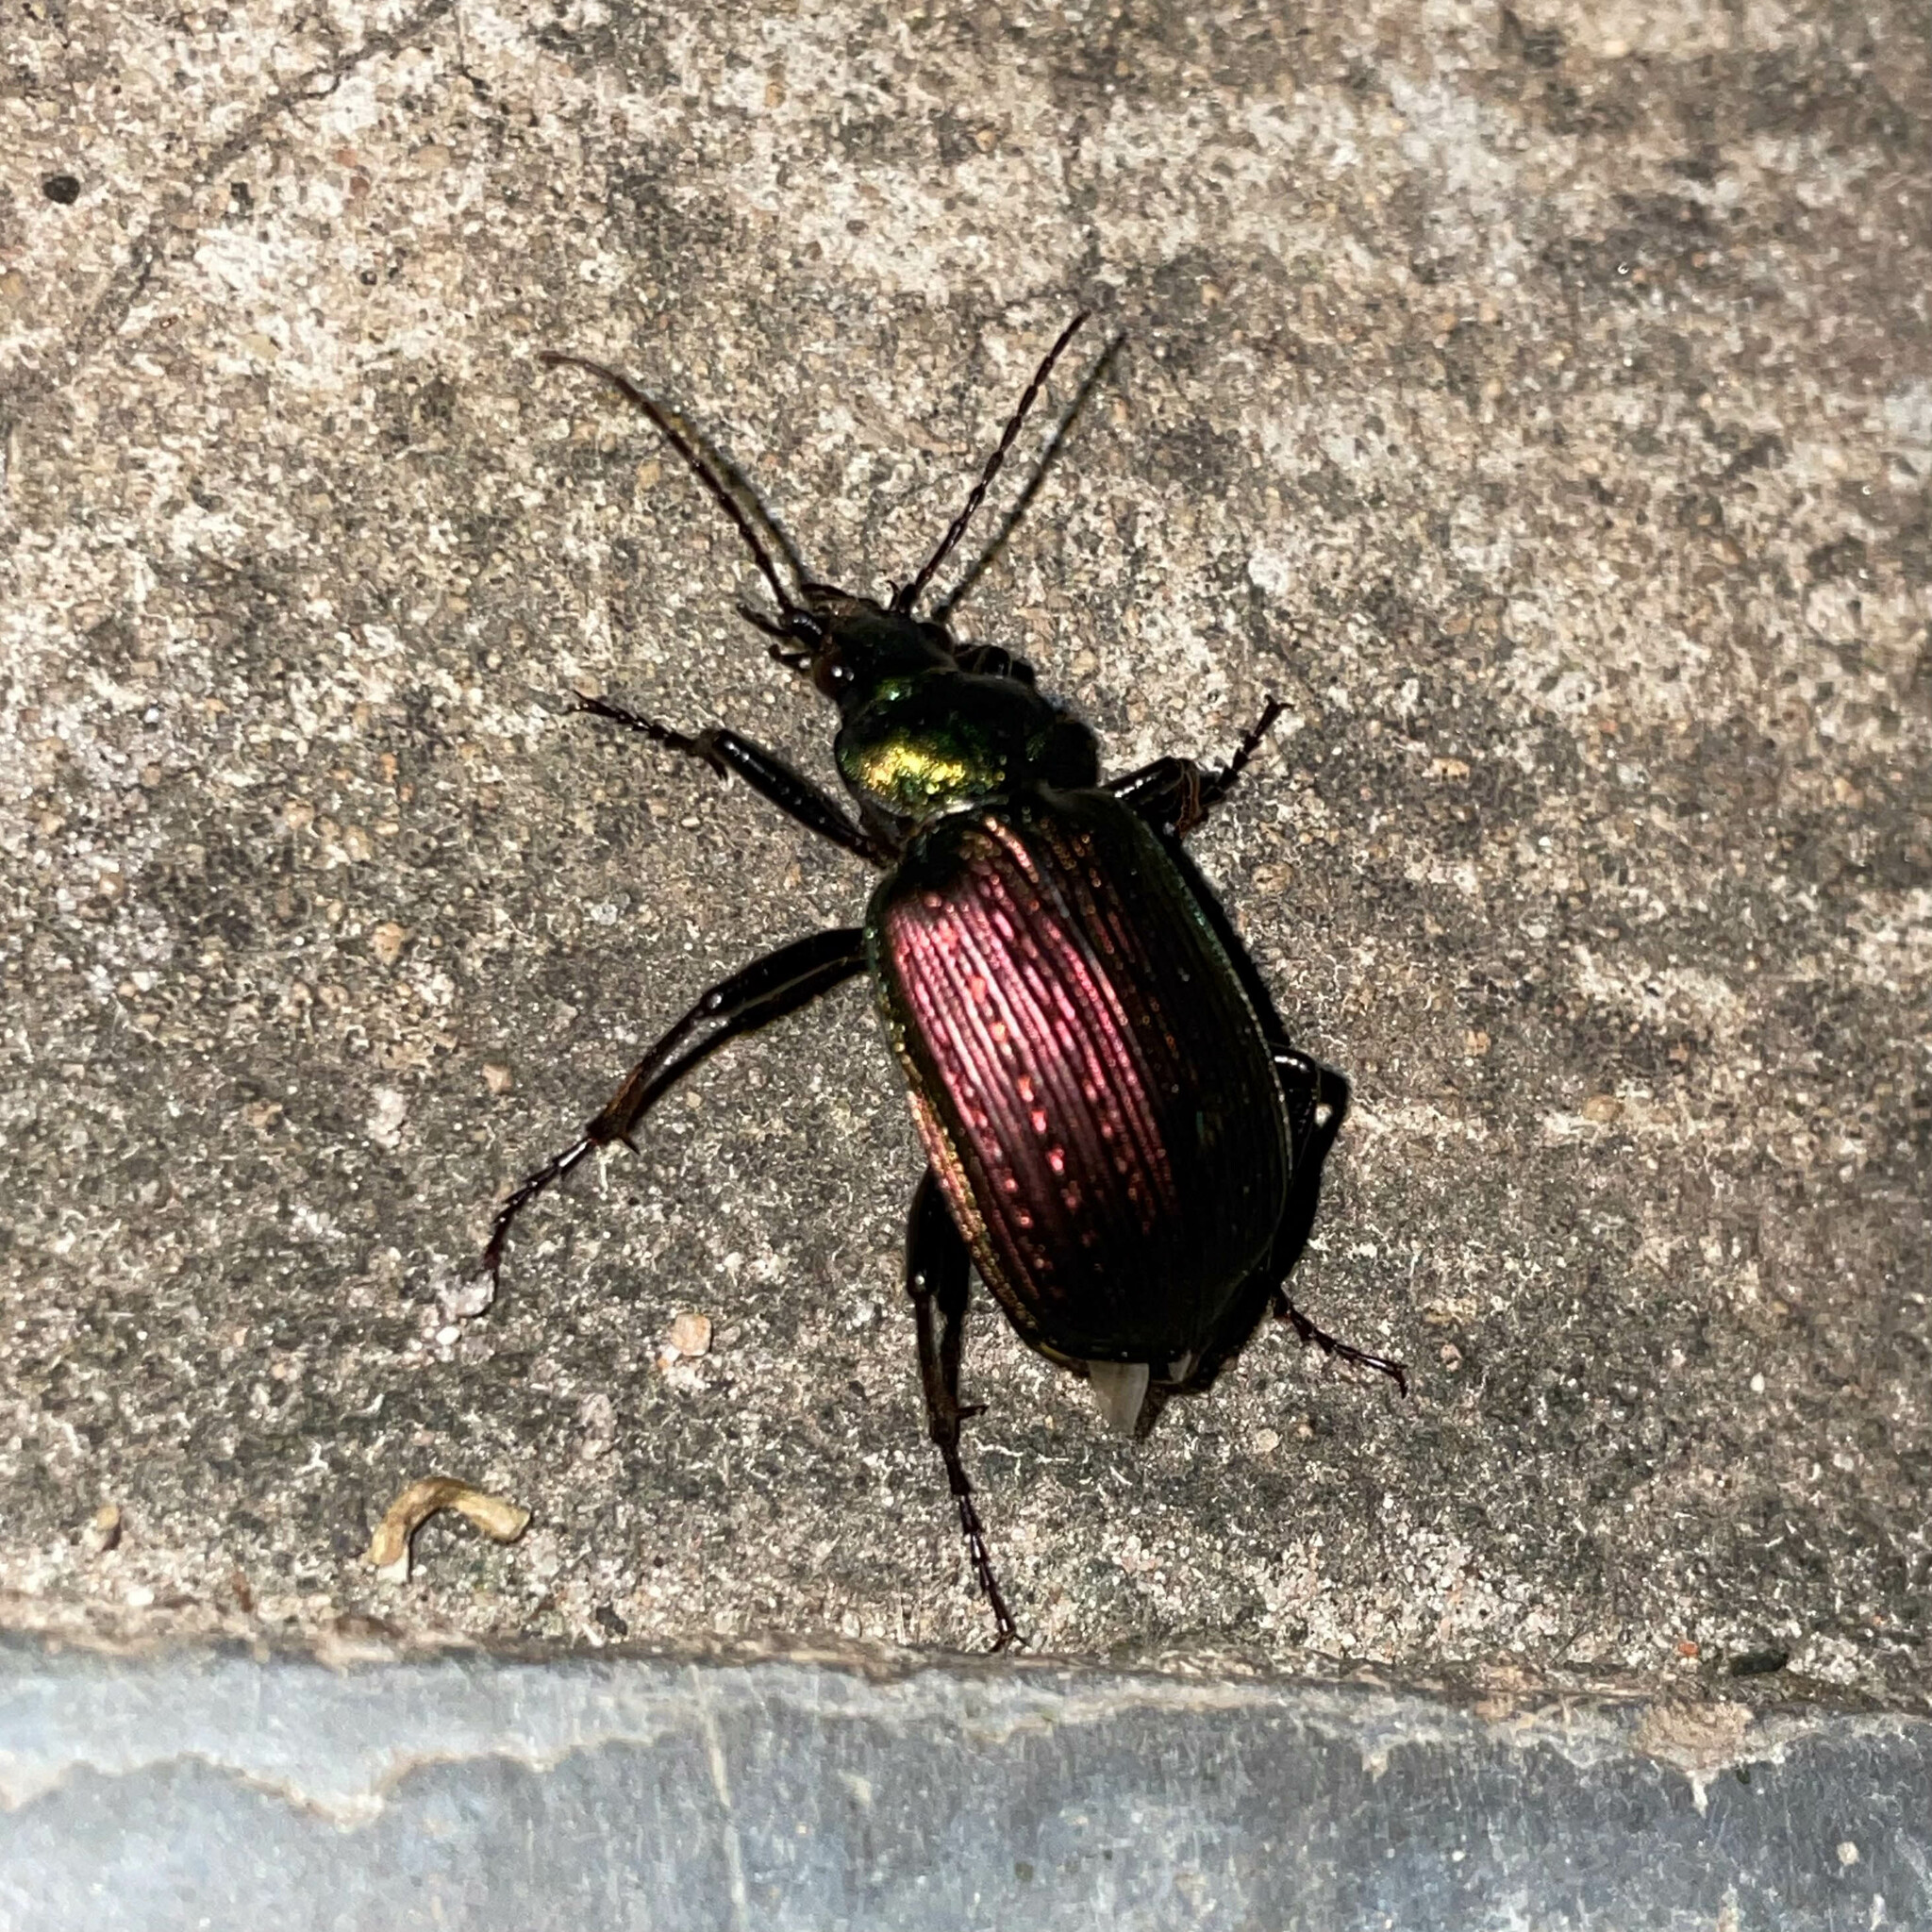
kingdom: Animalia
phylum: Arthropoda
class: Insecta
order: Coleoptera
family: Carabidae
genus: Calosoma
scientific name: Calosoma alternans
